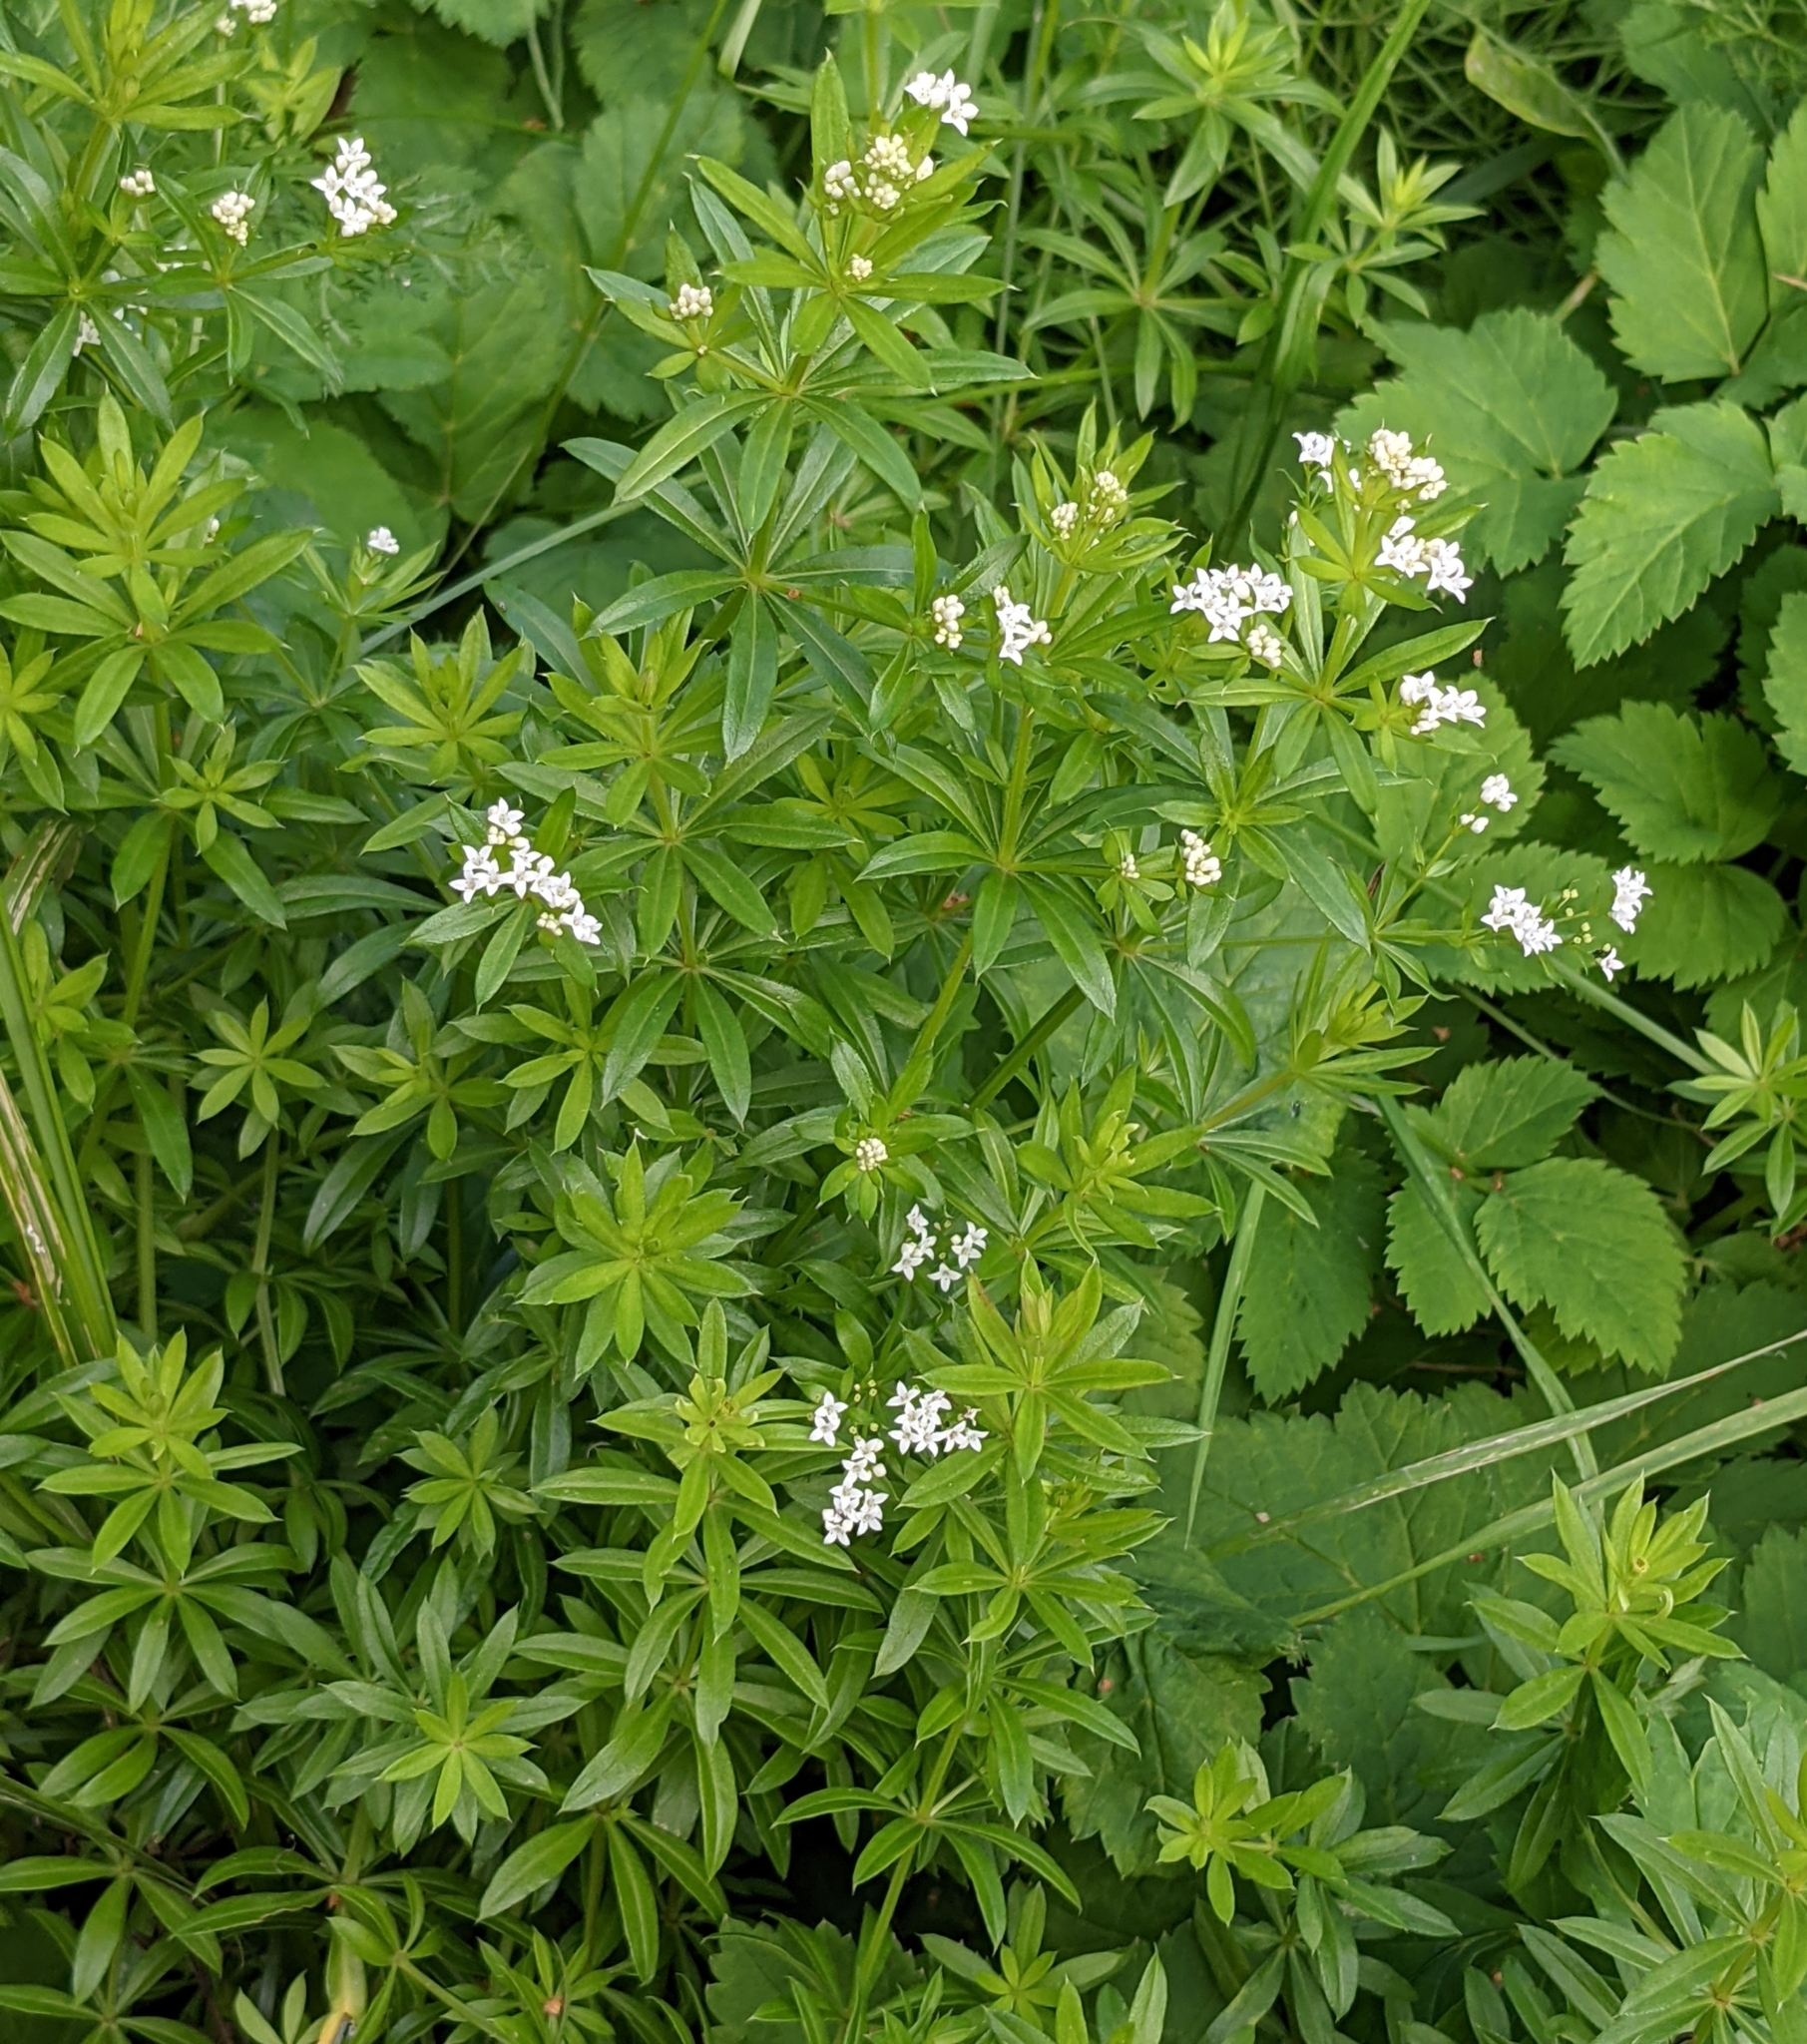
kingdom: Plantae
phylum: Tracheophyta
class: Magnoliopsida
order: Gentianales
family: Rubiaceae
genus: Galium
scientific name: Galium rivale
